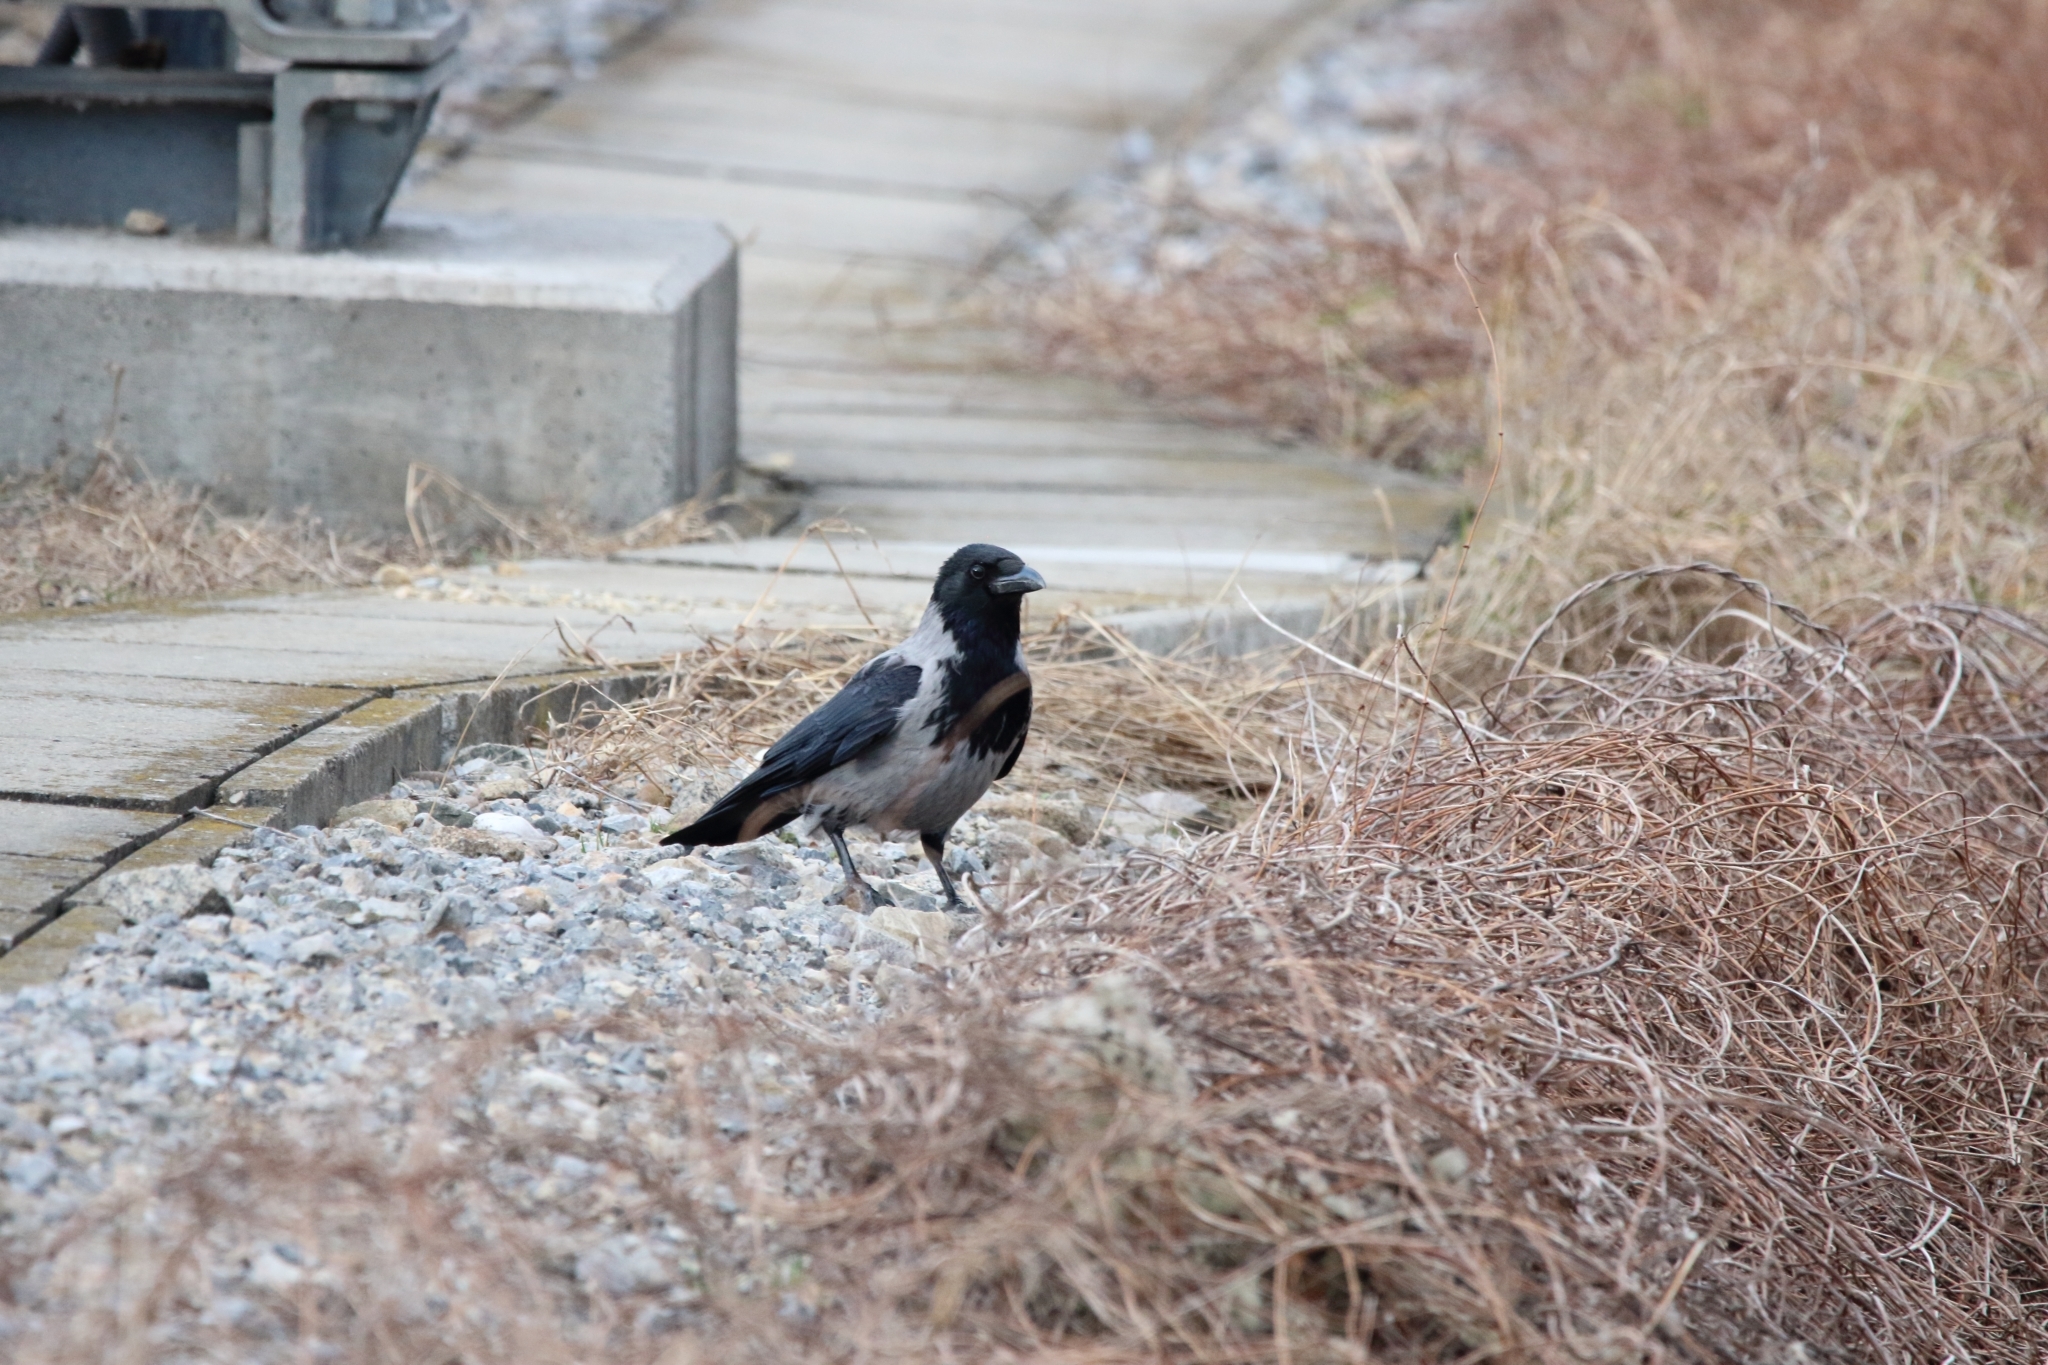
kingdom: Animalia
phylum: Chordata
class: Aves
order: Passeriformes
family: Corvidae
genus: Corvus
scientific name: Corvus cornix
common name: Hooded crow
